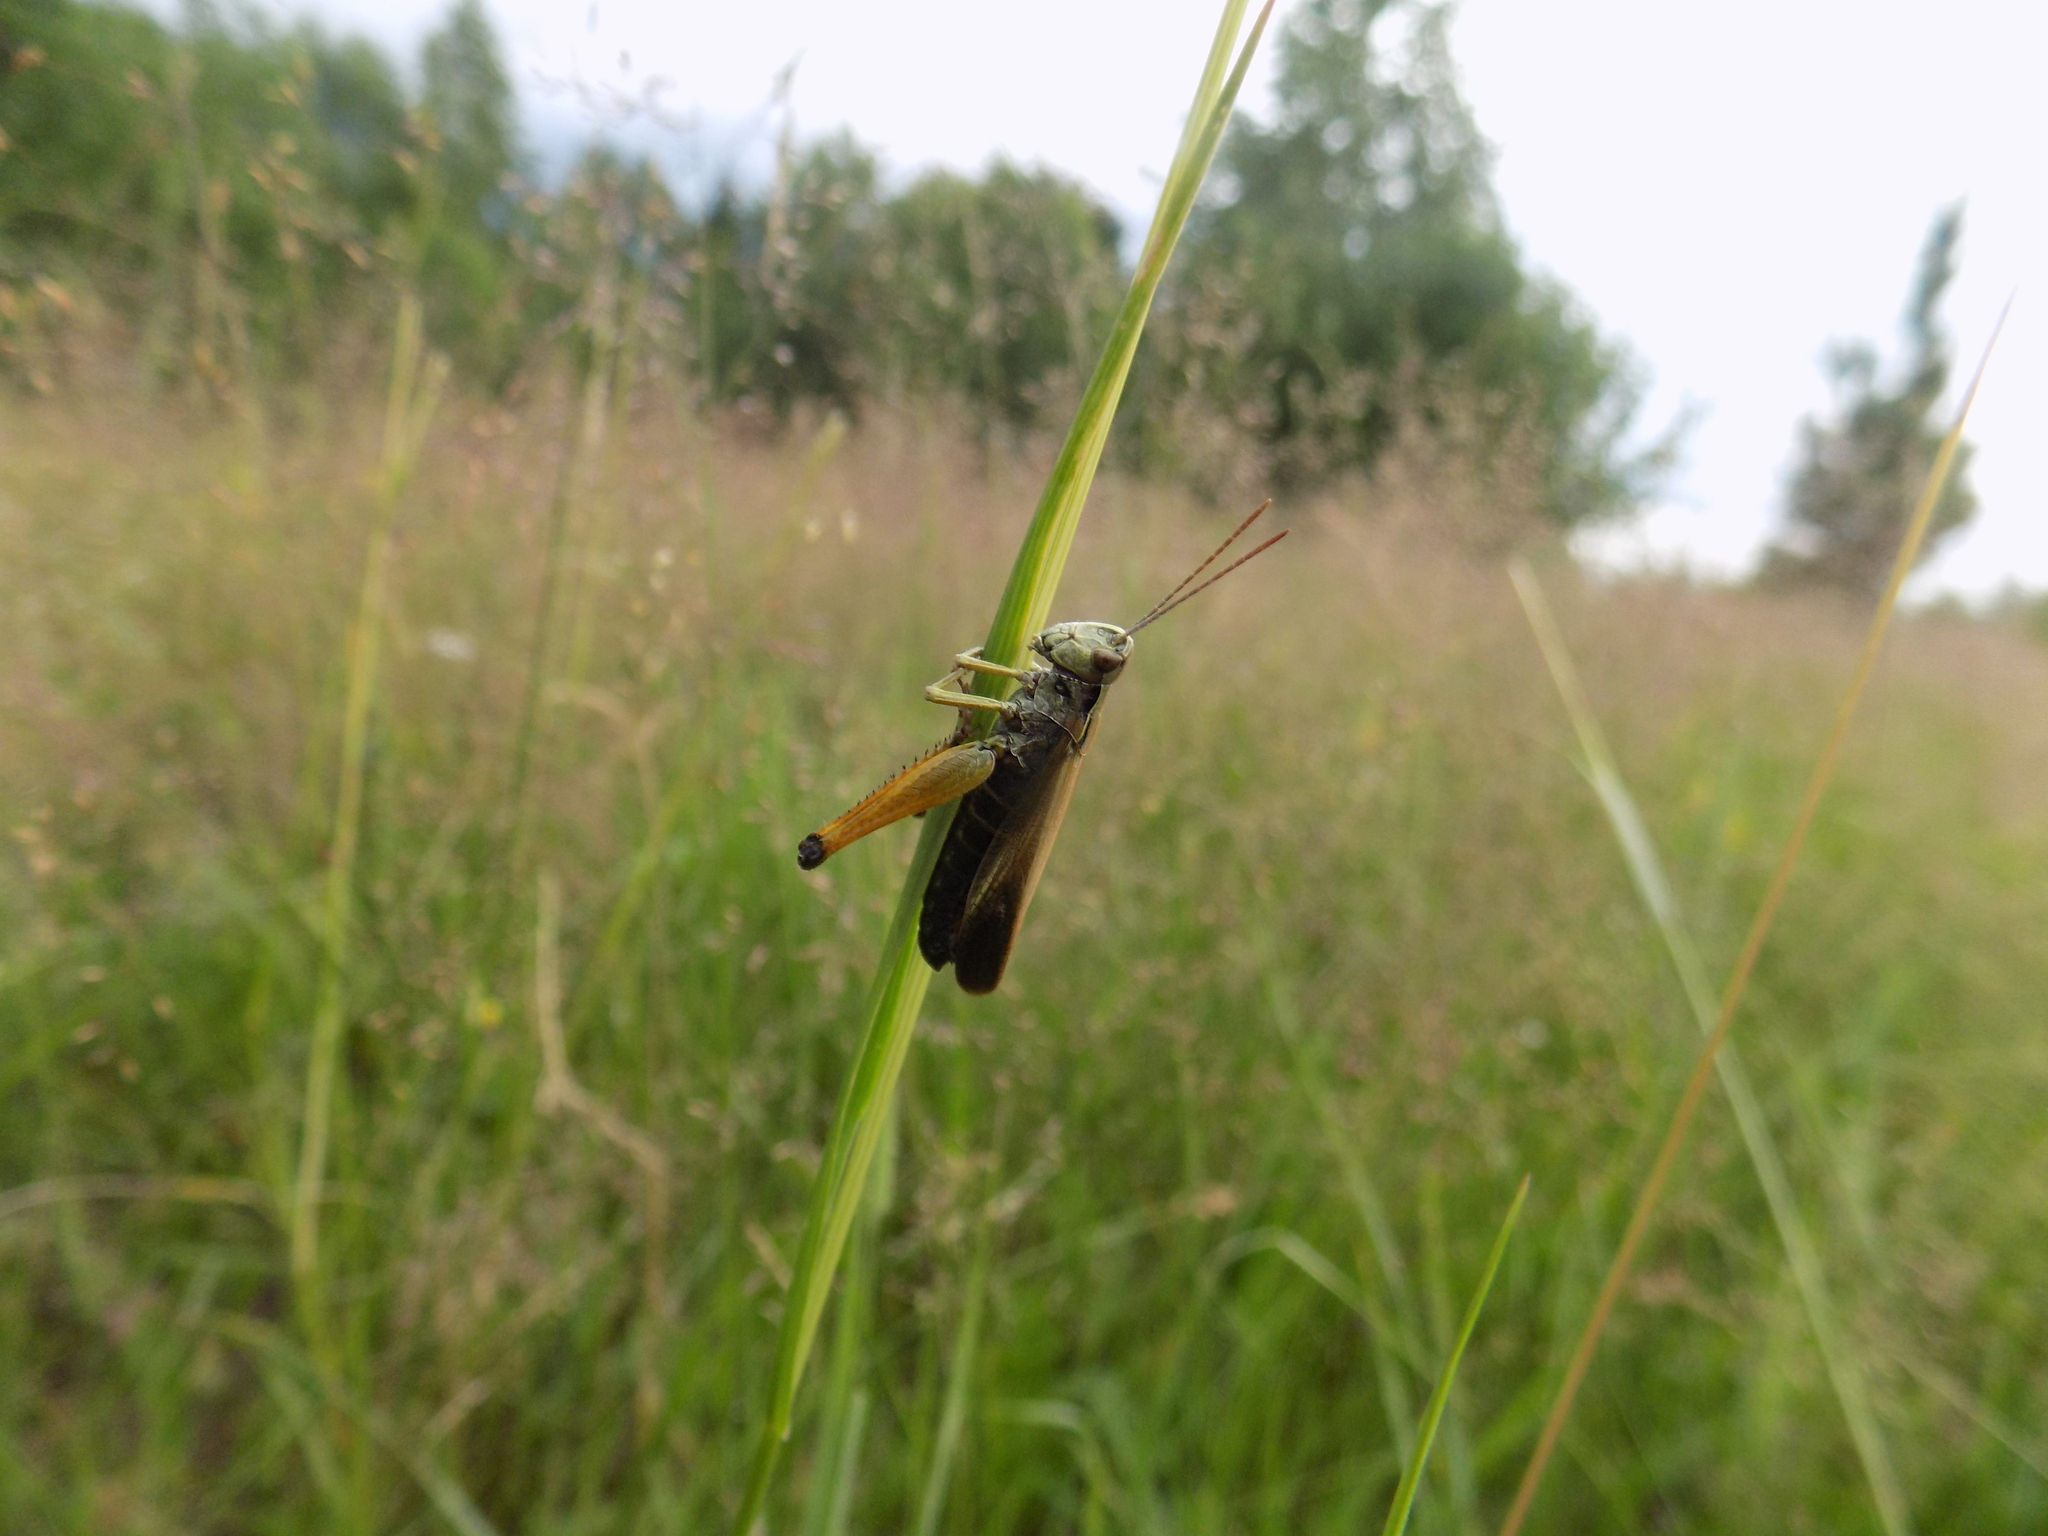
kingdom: Animalia
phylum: Arthropoda
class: Insecta
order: Orthoptera
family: Acrididae
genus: Omocestus
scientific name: Omocestus viridulus
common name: Common green grasshopper
